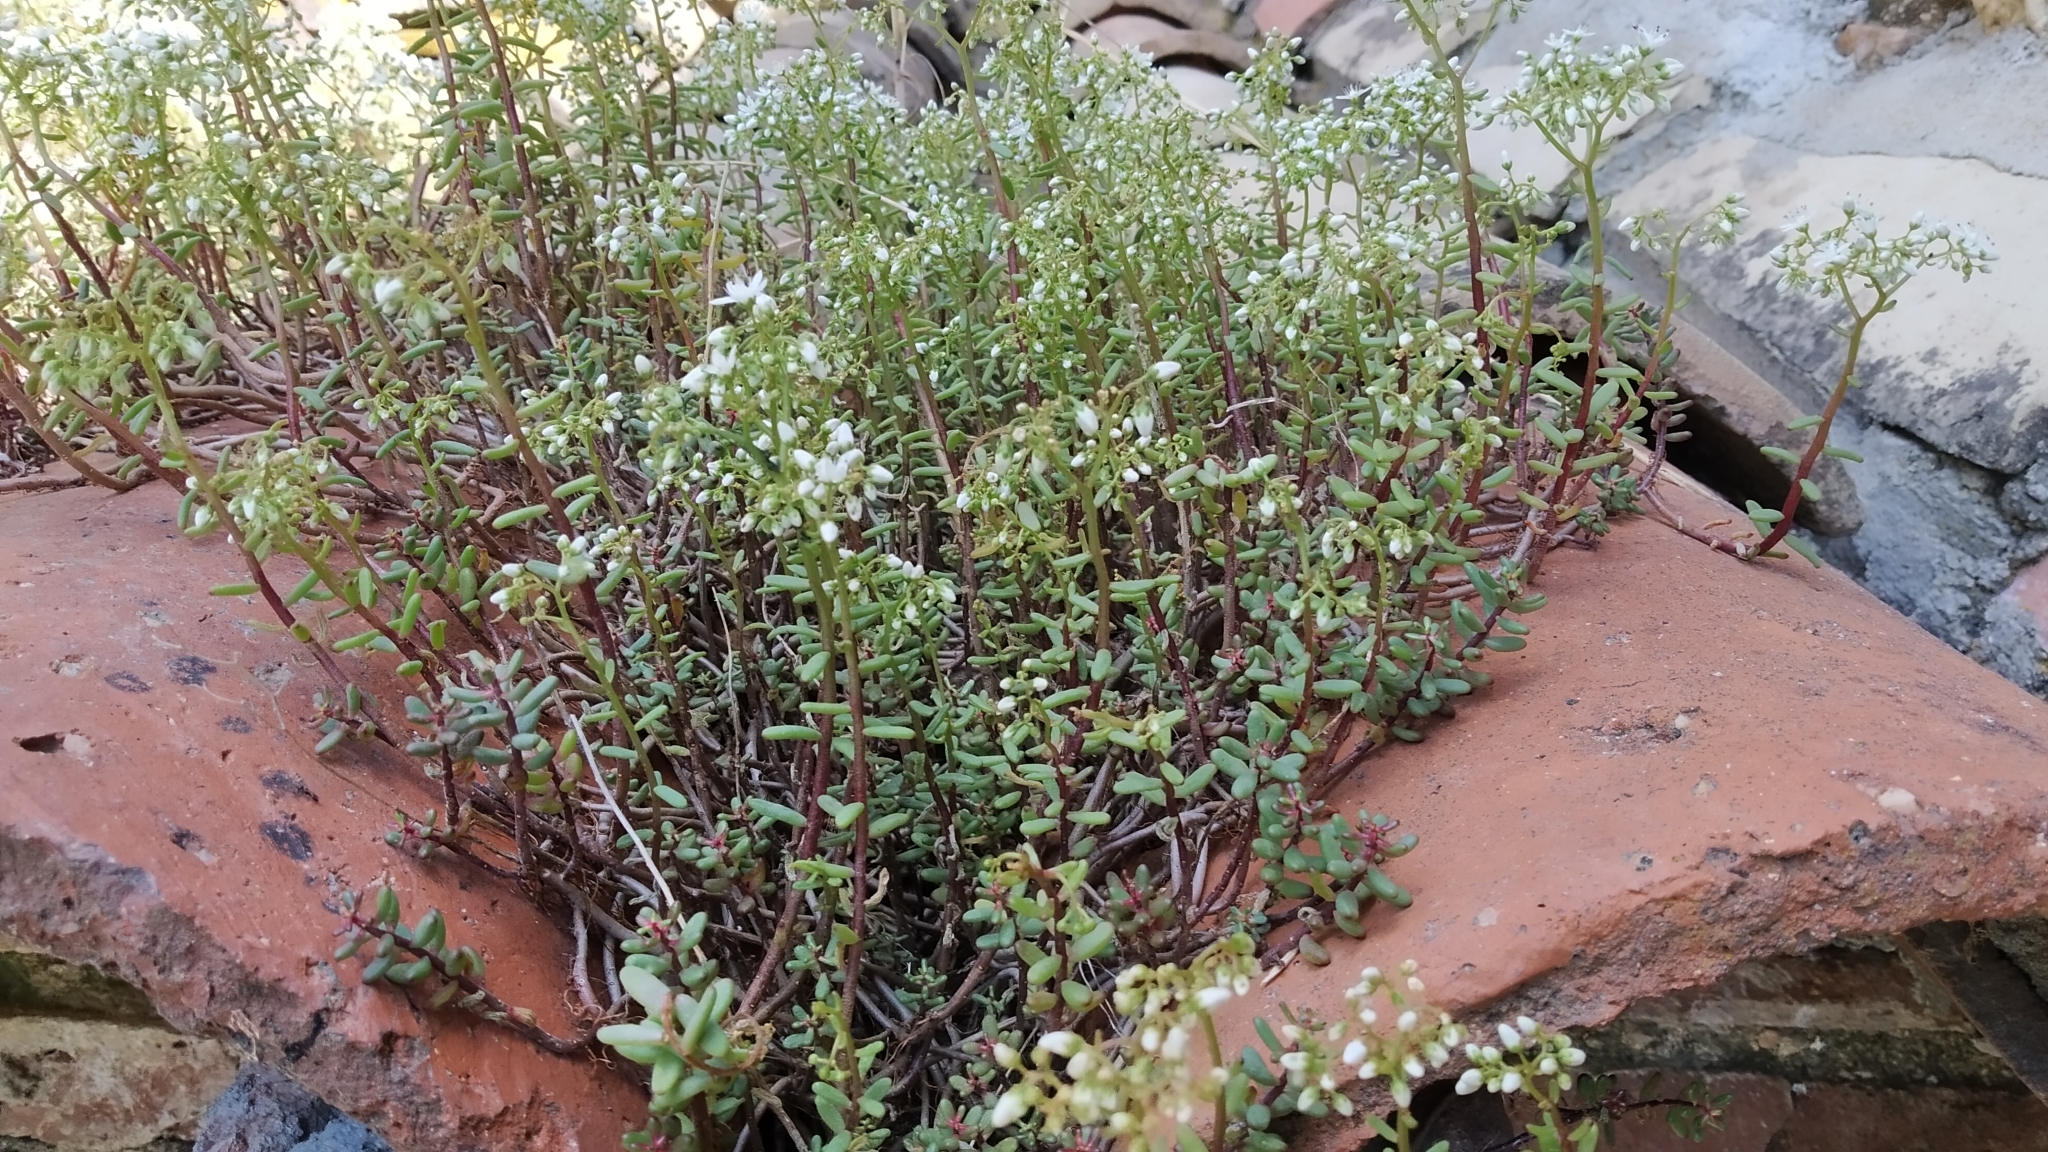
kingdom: Plantae
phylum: Tracheophyta
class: Magnoliopsida
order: Saxifragales
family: Crassulaceae
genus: Sedum
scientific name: Sedum album
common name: White stonecrop
